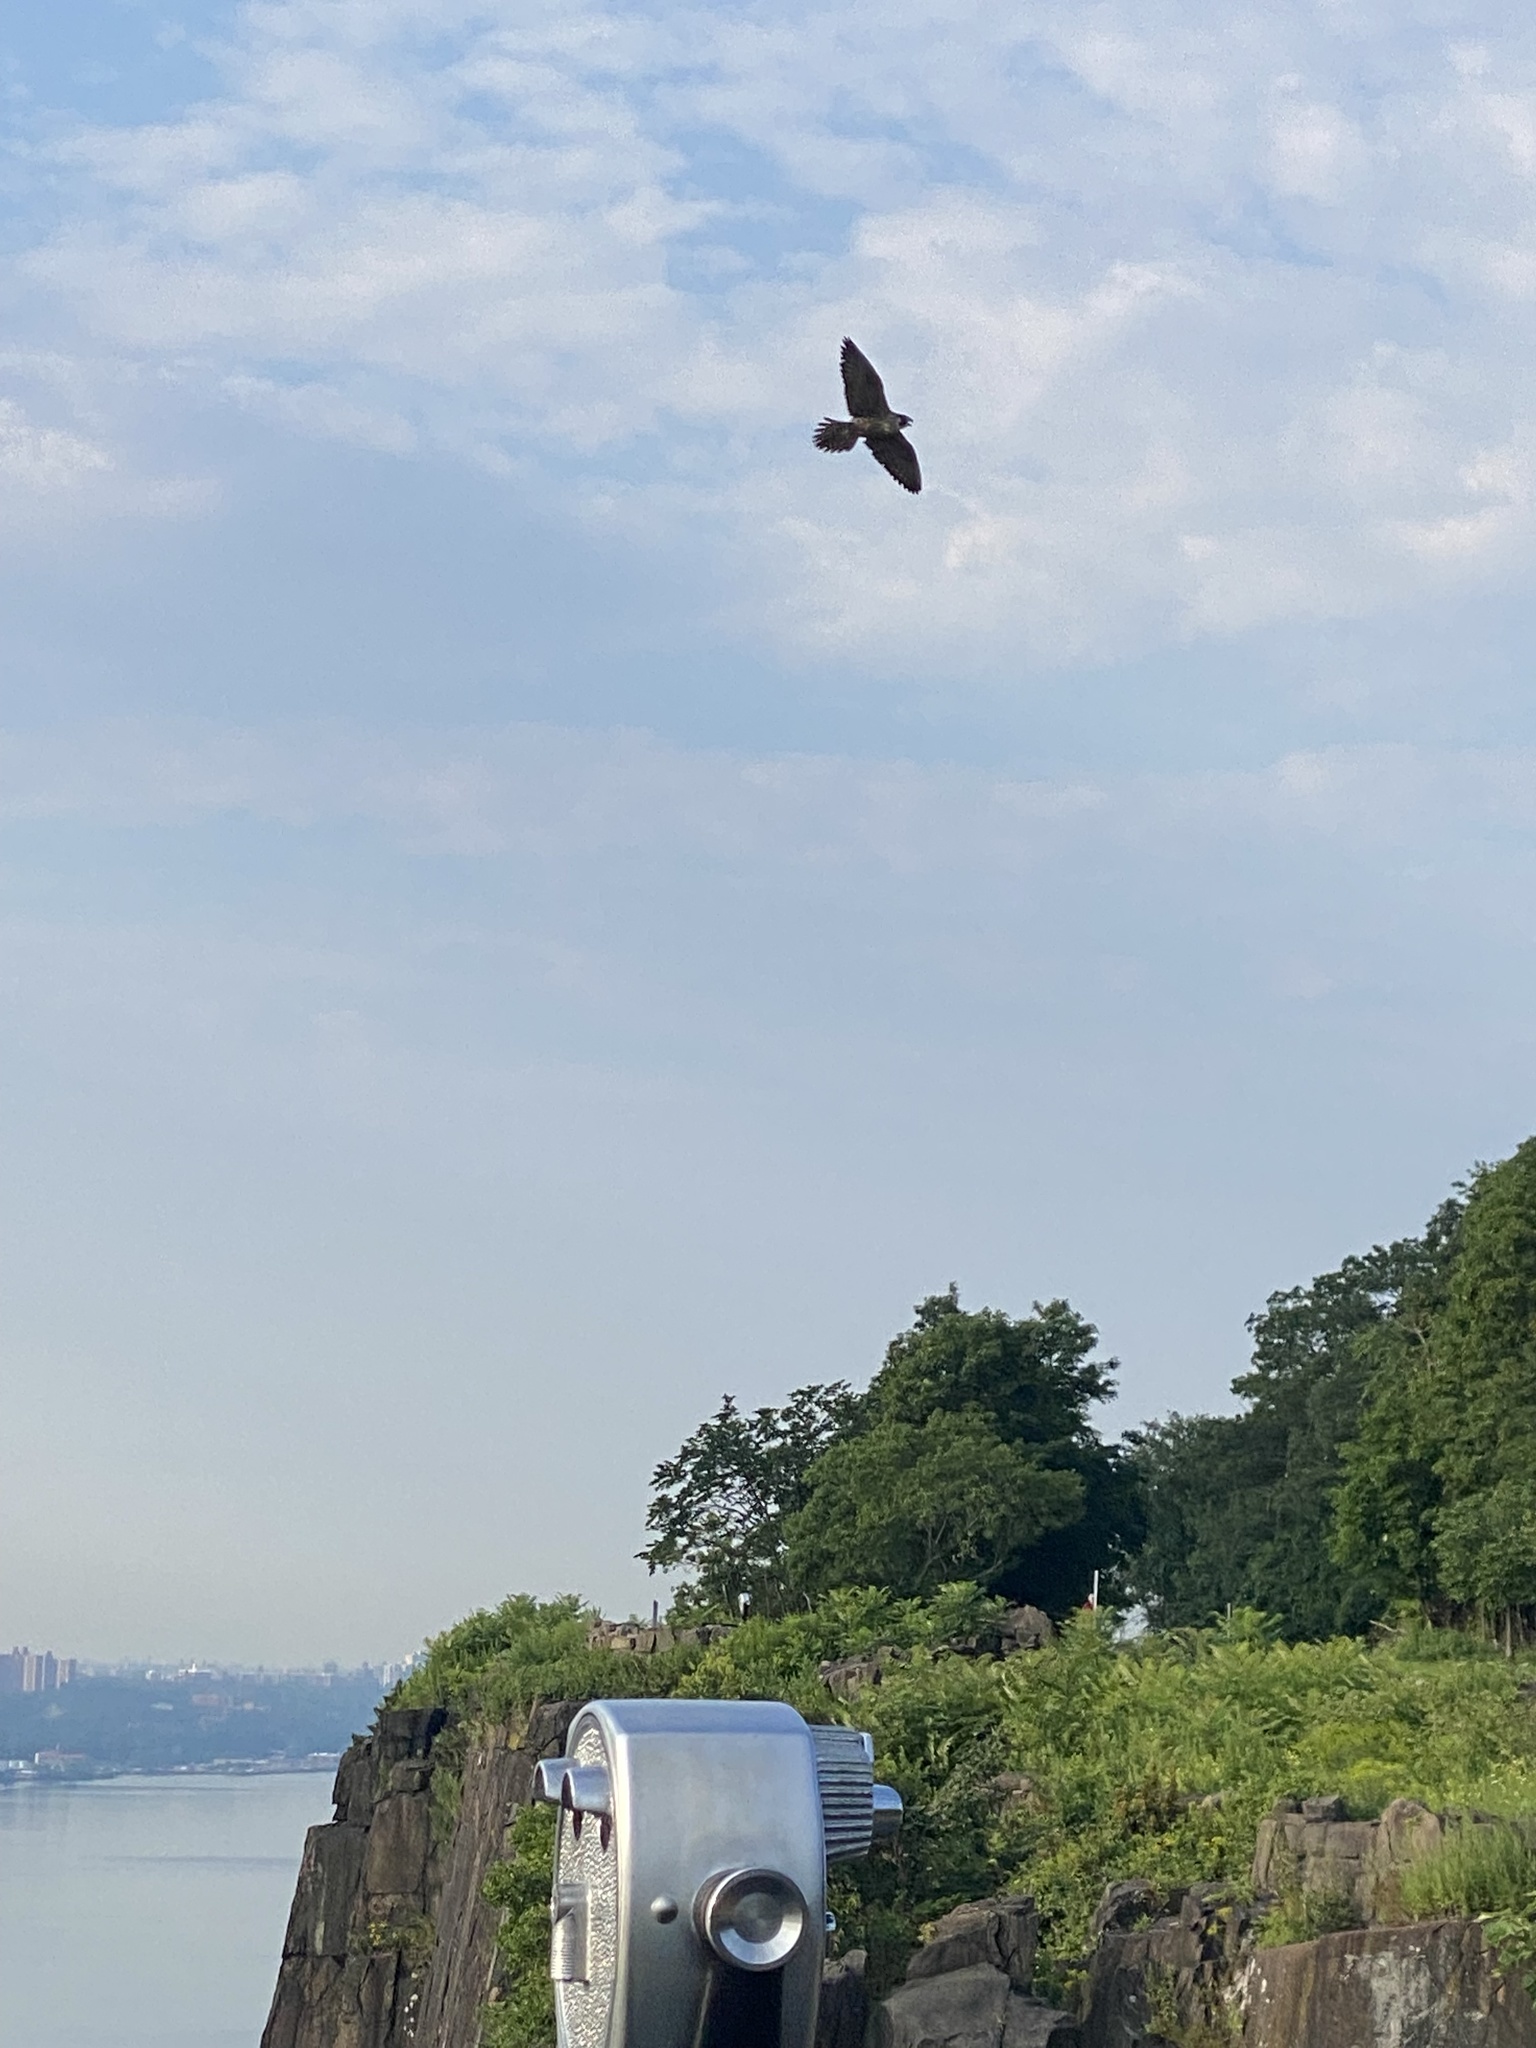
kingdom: Animalia
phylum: Chordata
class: Aves
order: Falconiformes
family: Falconidae
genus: Falco
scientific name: Falco peregrinus
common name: Peregrine falcon
